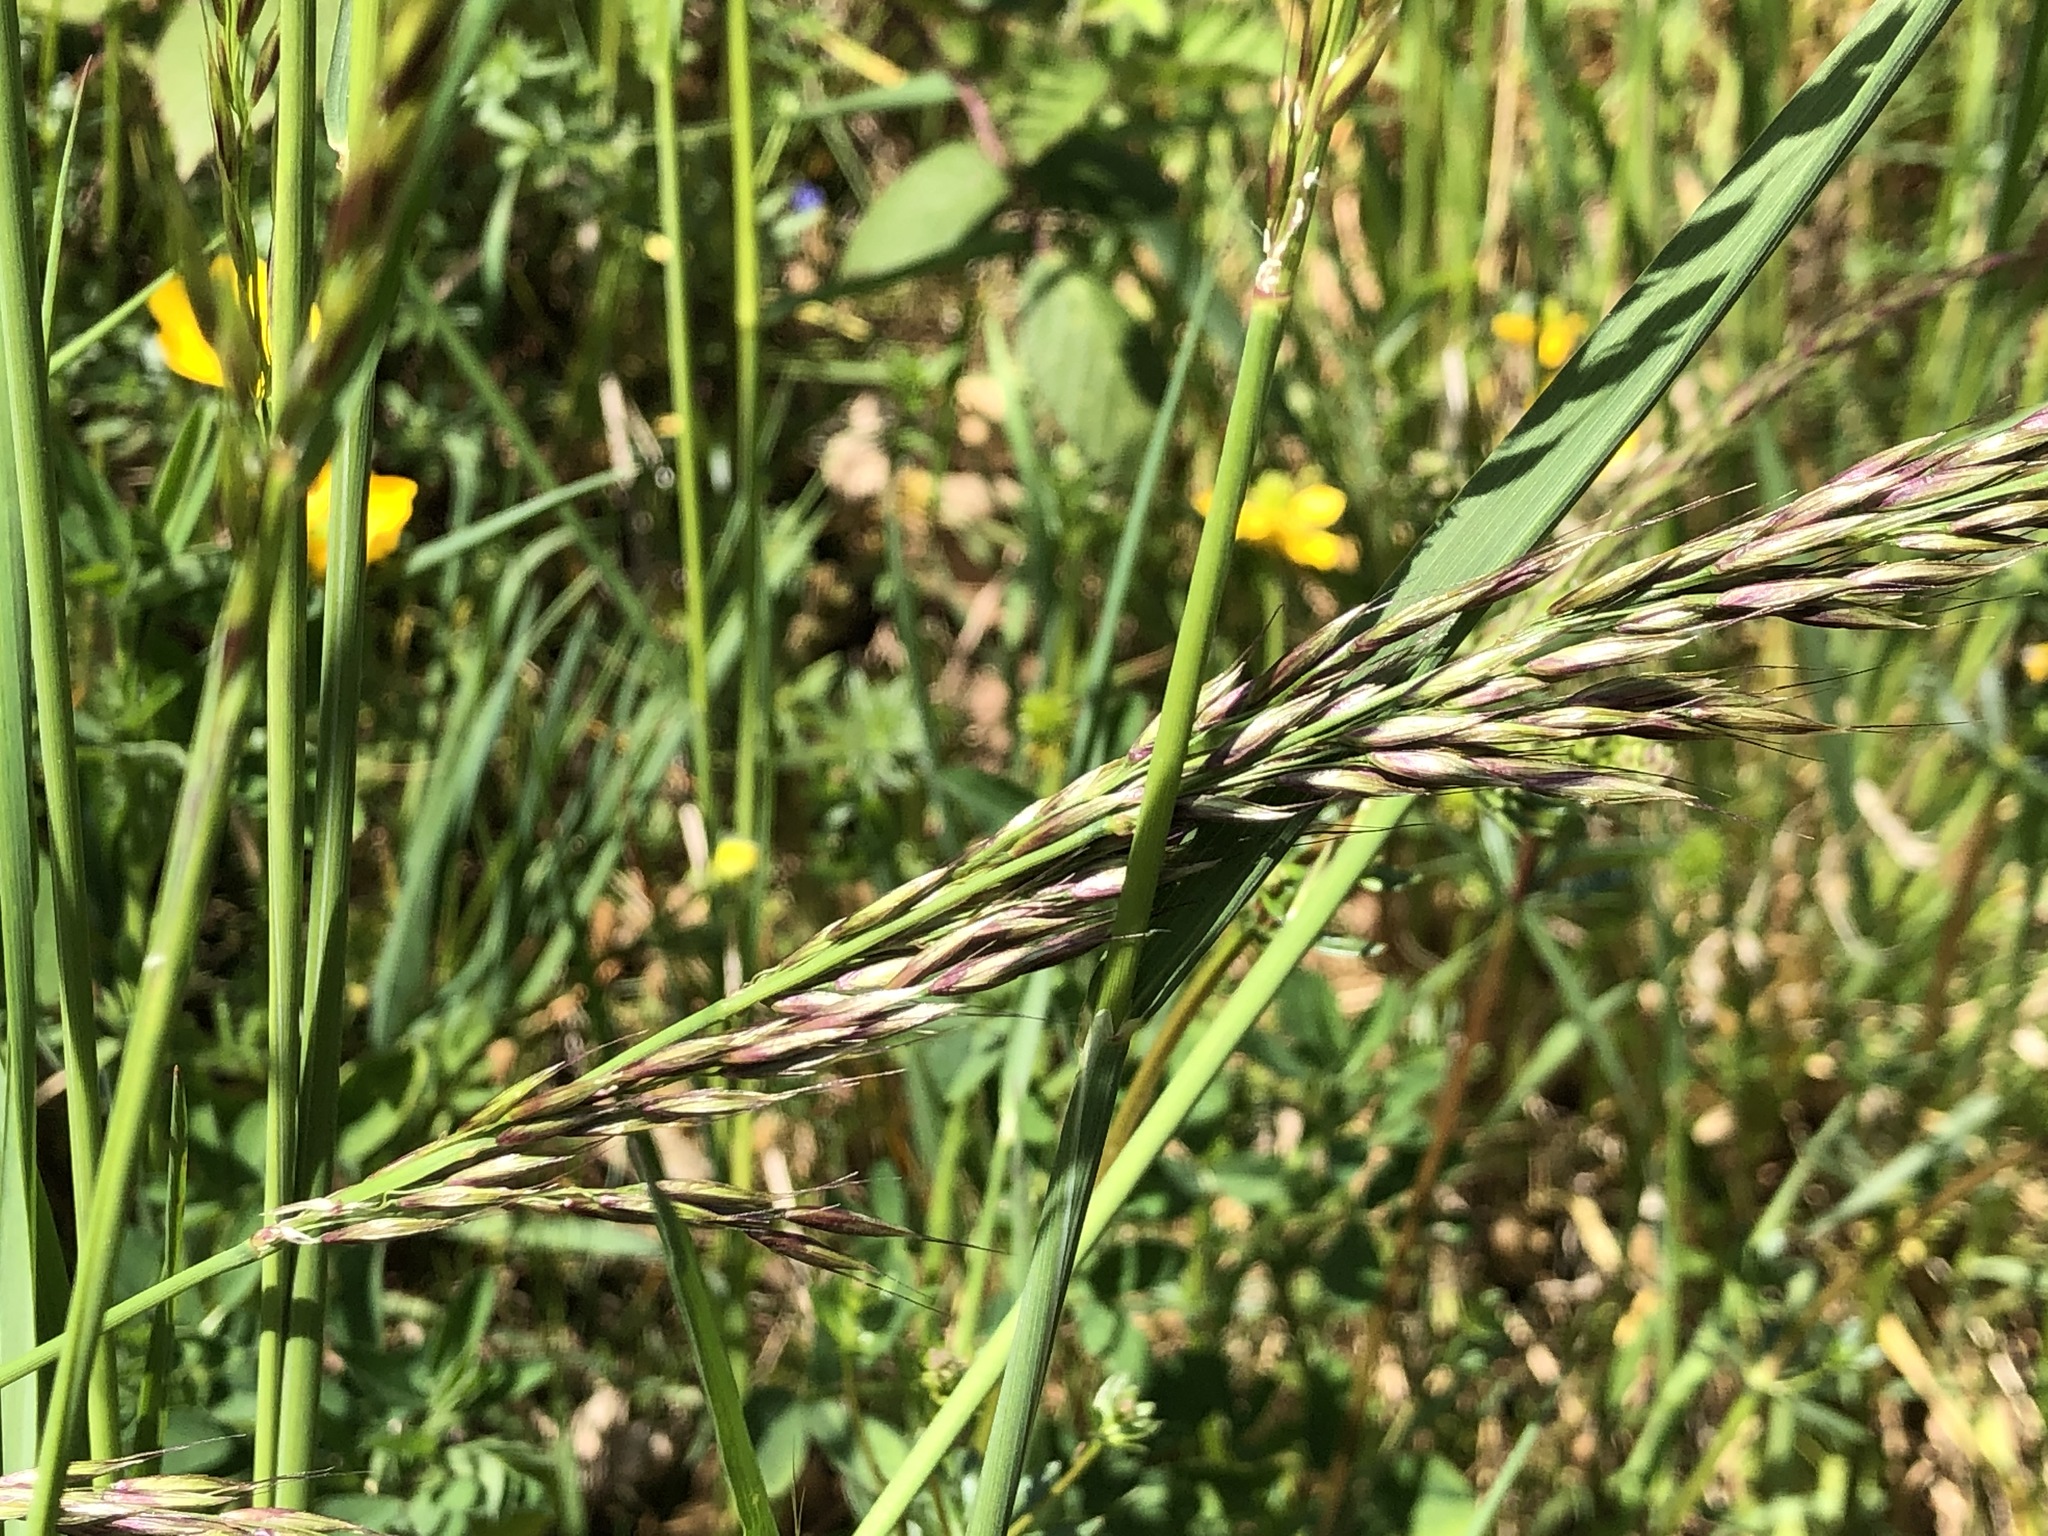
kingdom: Plantae
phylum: Tracheophyta
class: Liliopsida
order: Poales
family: Poaceae
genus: Arrhenatherum
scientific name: Arrhenatherum elatius
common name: Tall oatgrass
